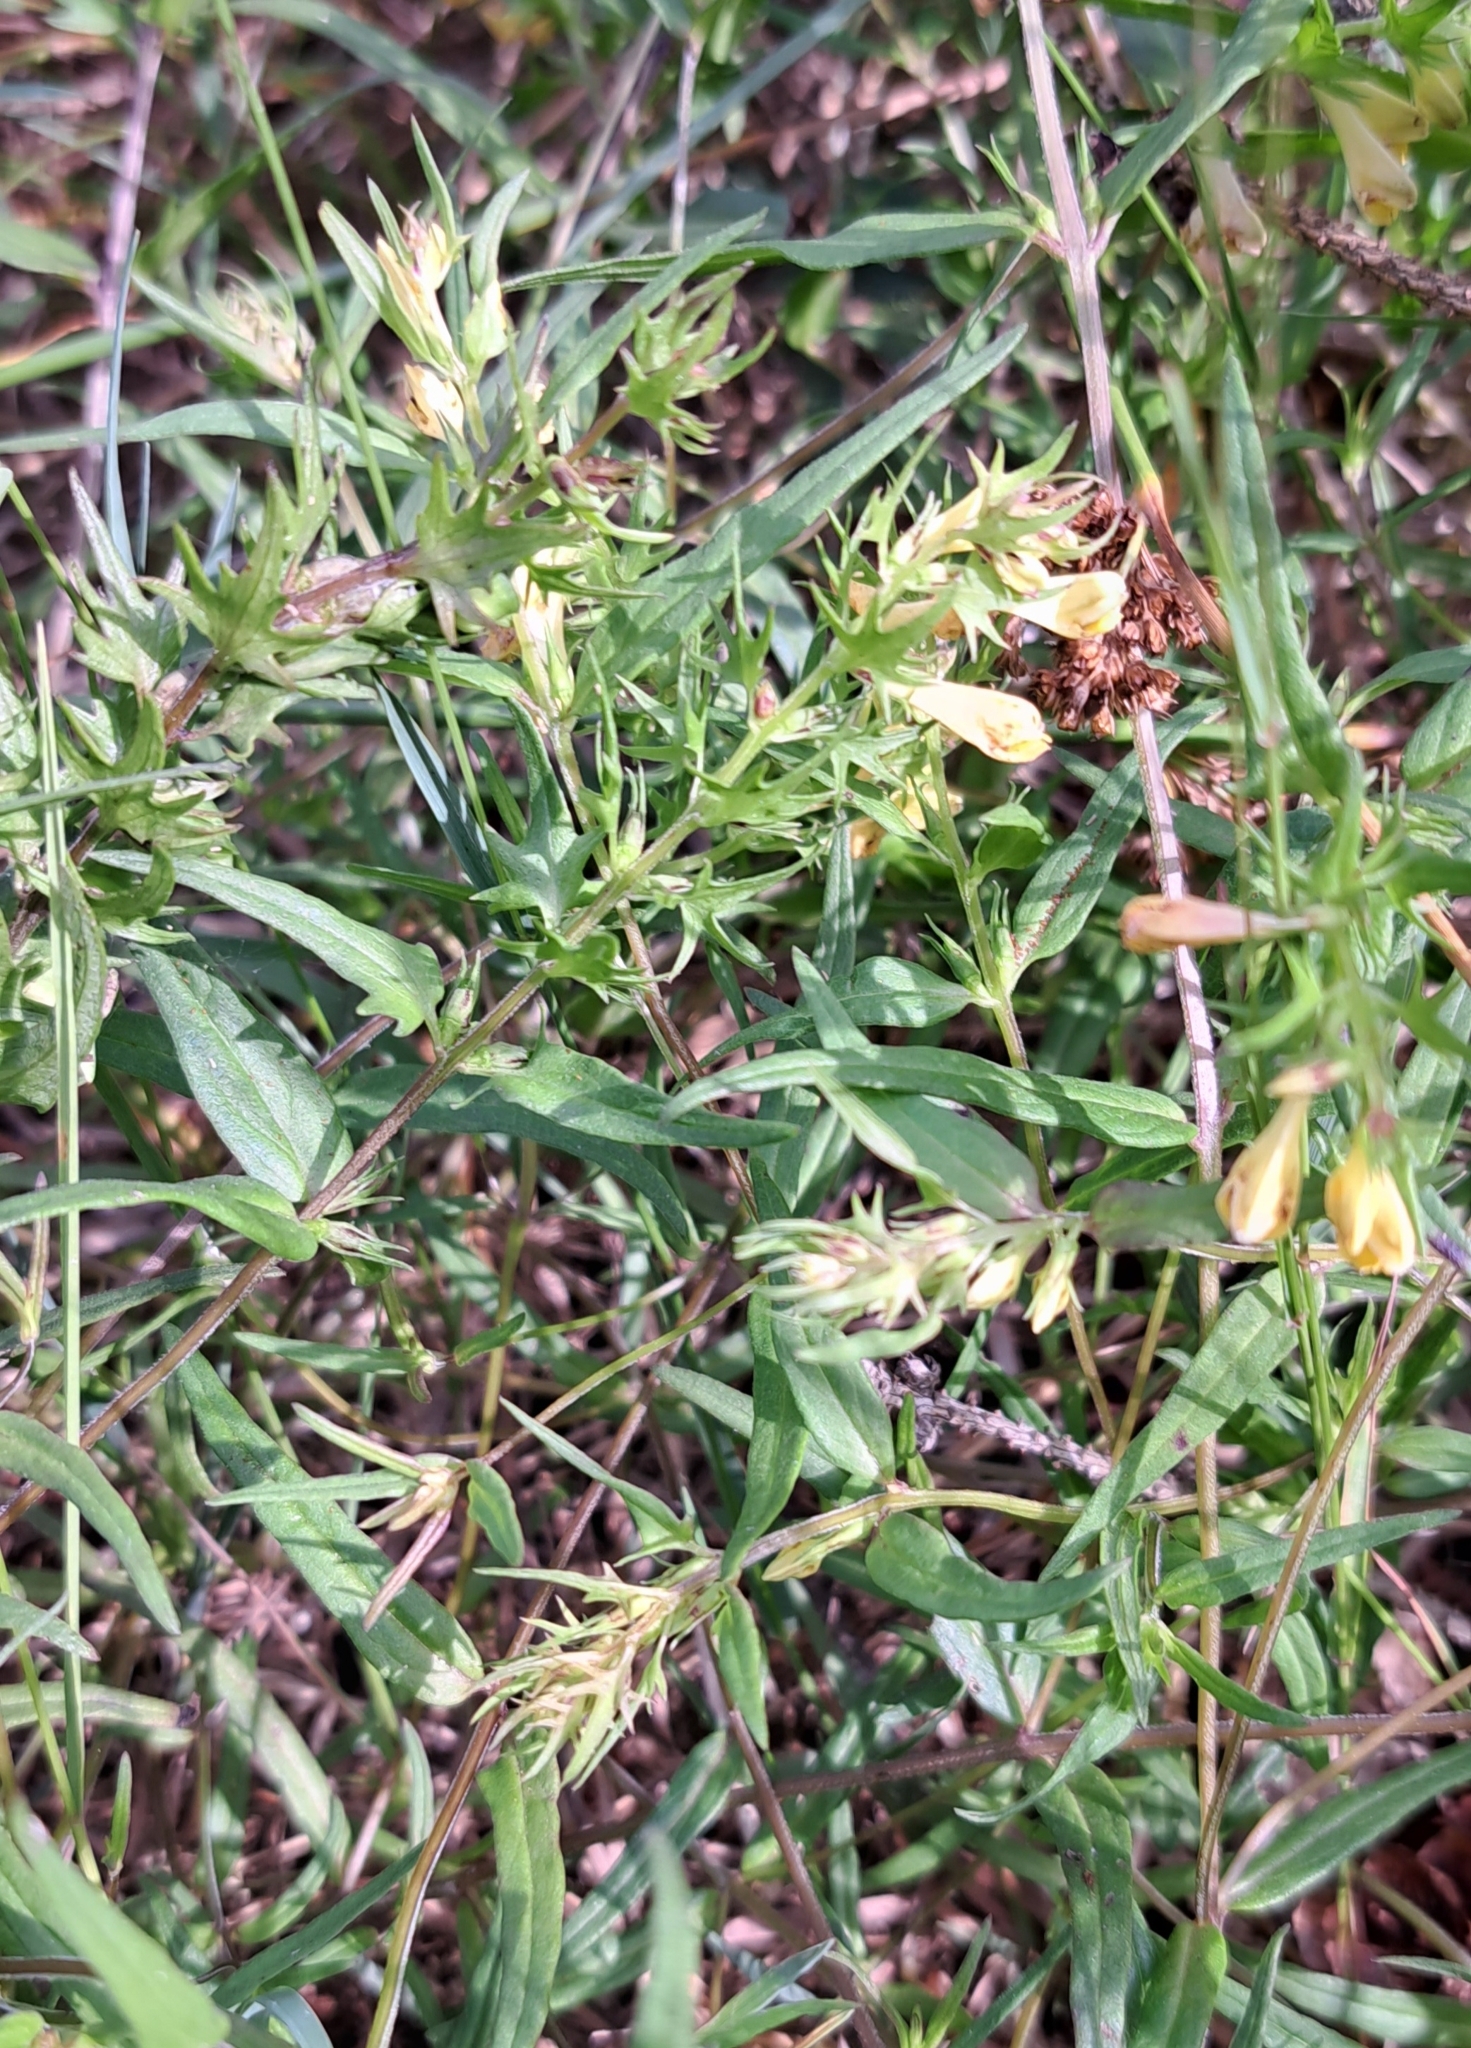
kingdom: Plantae
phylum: Tracheophyta
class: Magnoliopsida
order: Lamiales
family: Orobanchaceae
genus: Melampyrum
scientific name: Melampyrum pratense
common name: Common cow-wheat
